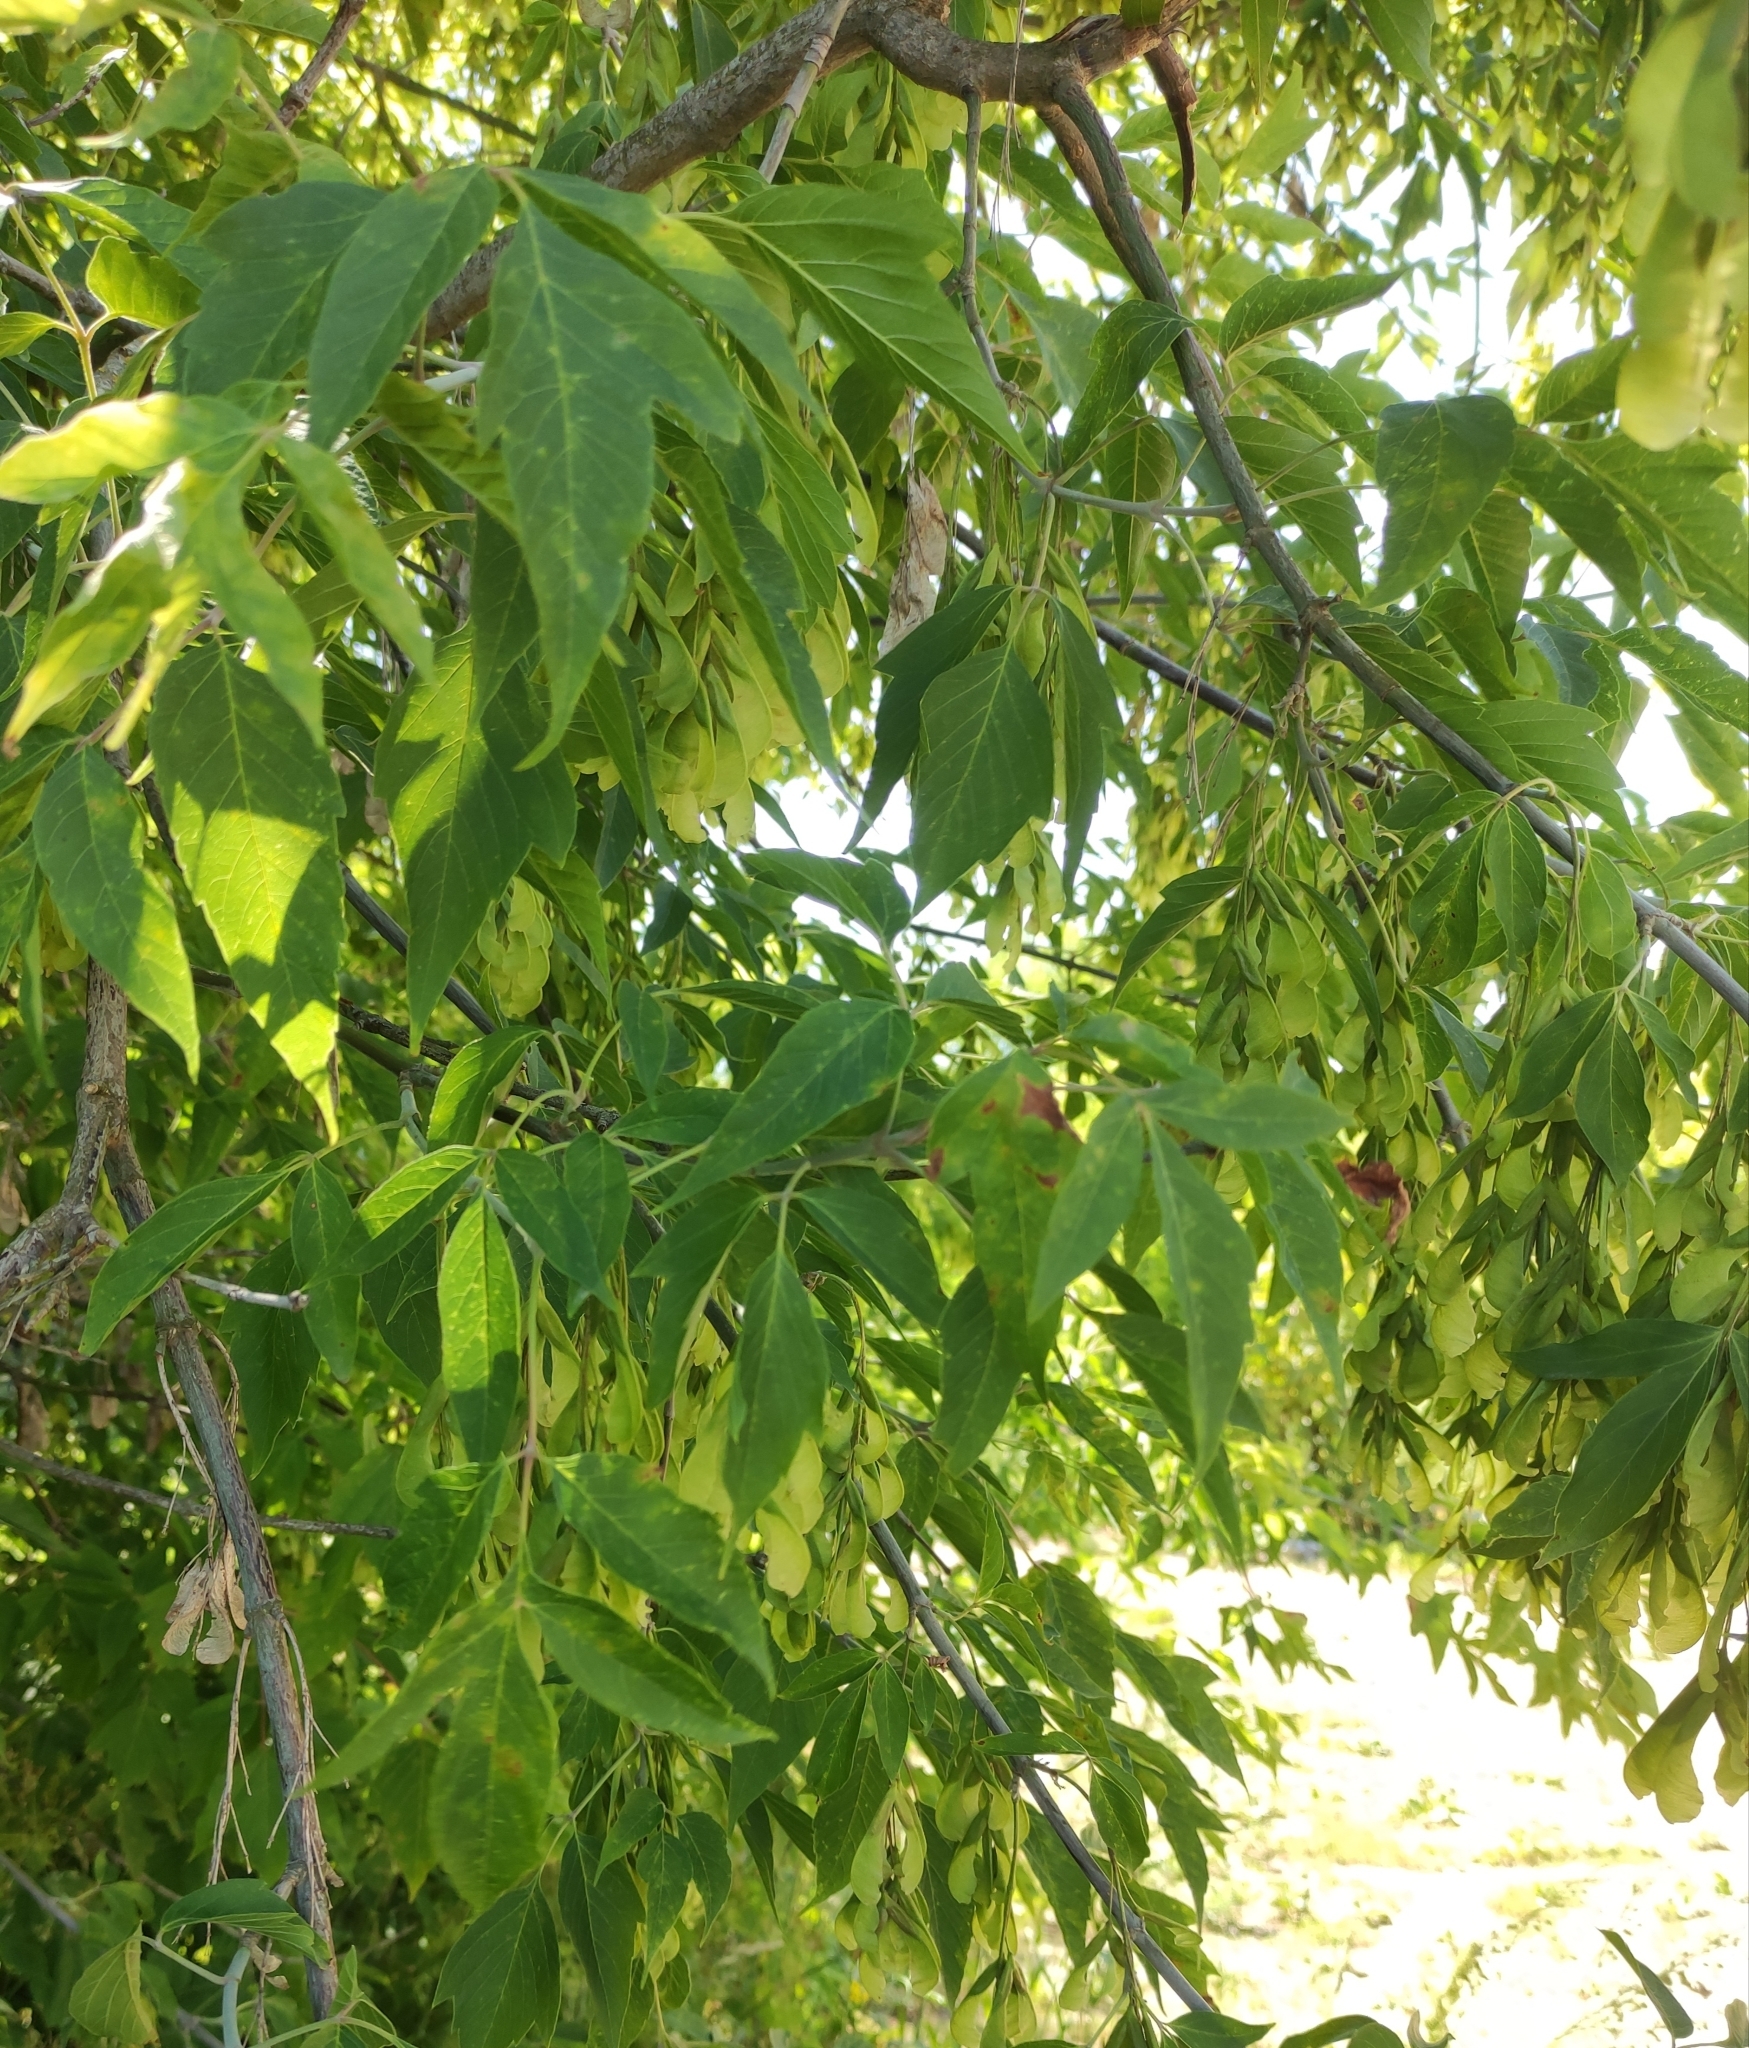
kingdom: Plantae
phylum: Tracheophyta
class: Magnoliopsida
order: Sapindales
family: Sapindaceae
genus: Acer
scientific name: Acer negundo
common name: Ashleaf maple
